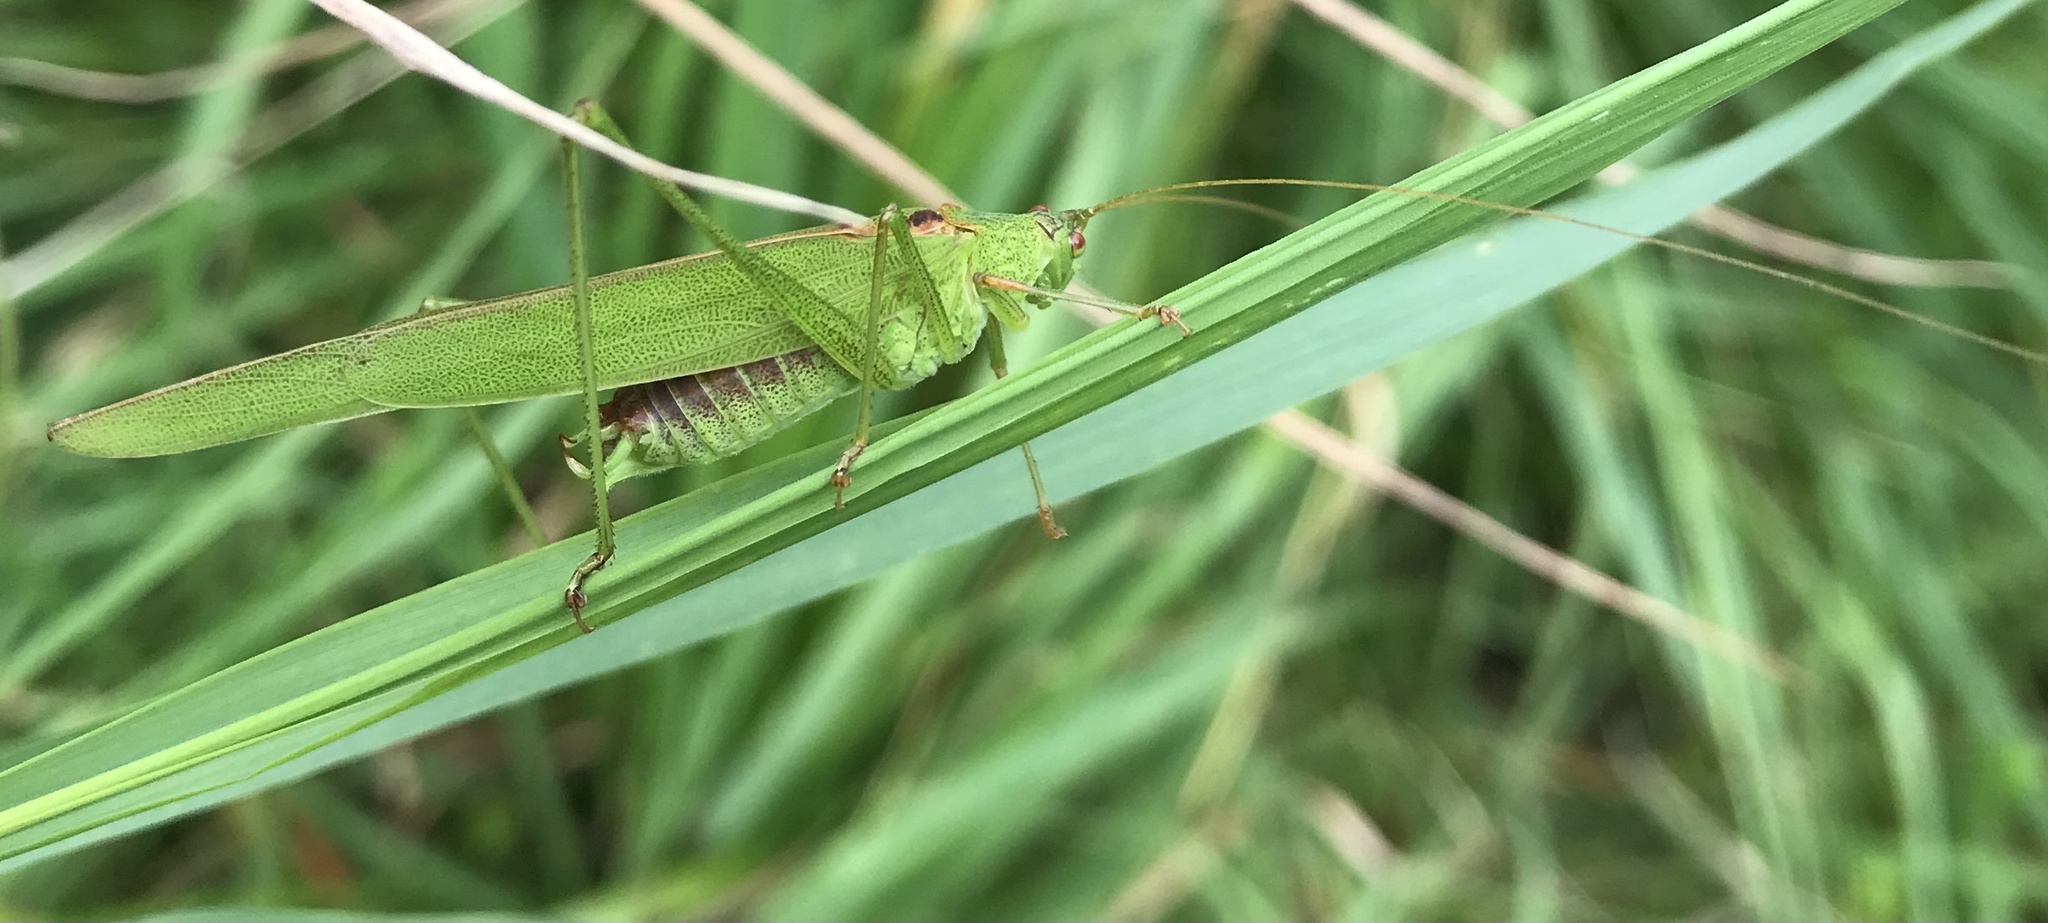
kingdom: Animalia
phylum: Arthropoda
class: Insecta
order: Orthoptera
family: Tettigoniidae
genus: Phaneroptera
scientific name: Phaneroptera falcata
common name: Sickle-bearing bush-cricket
